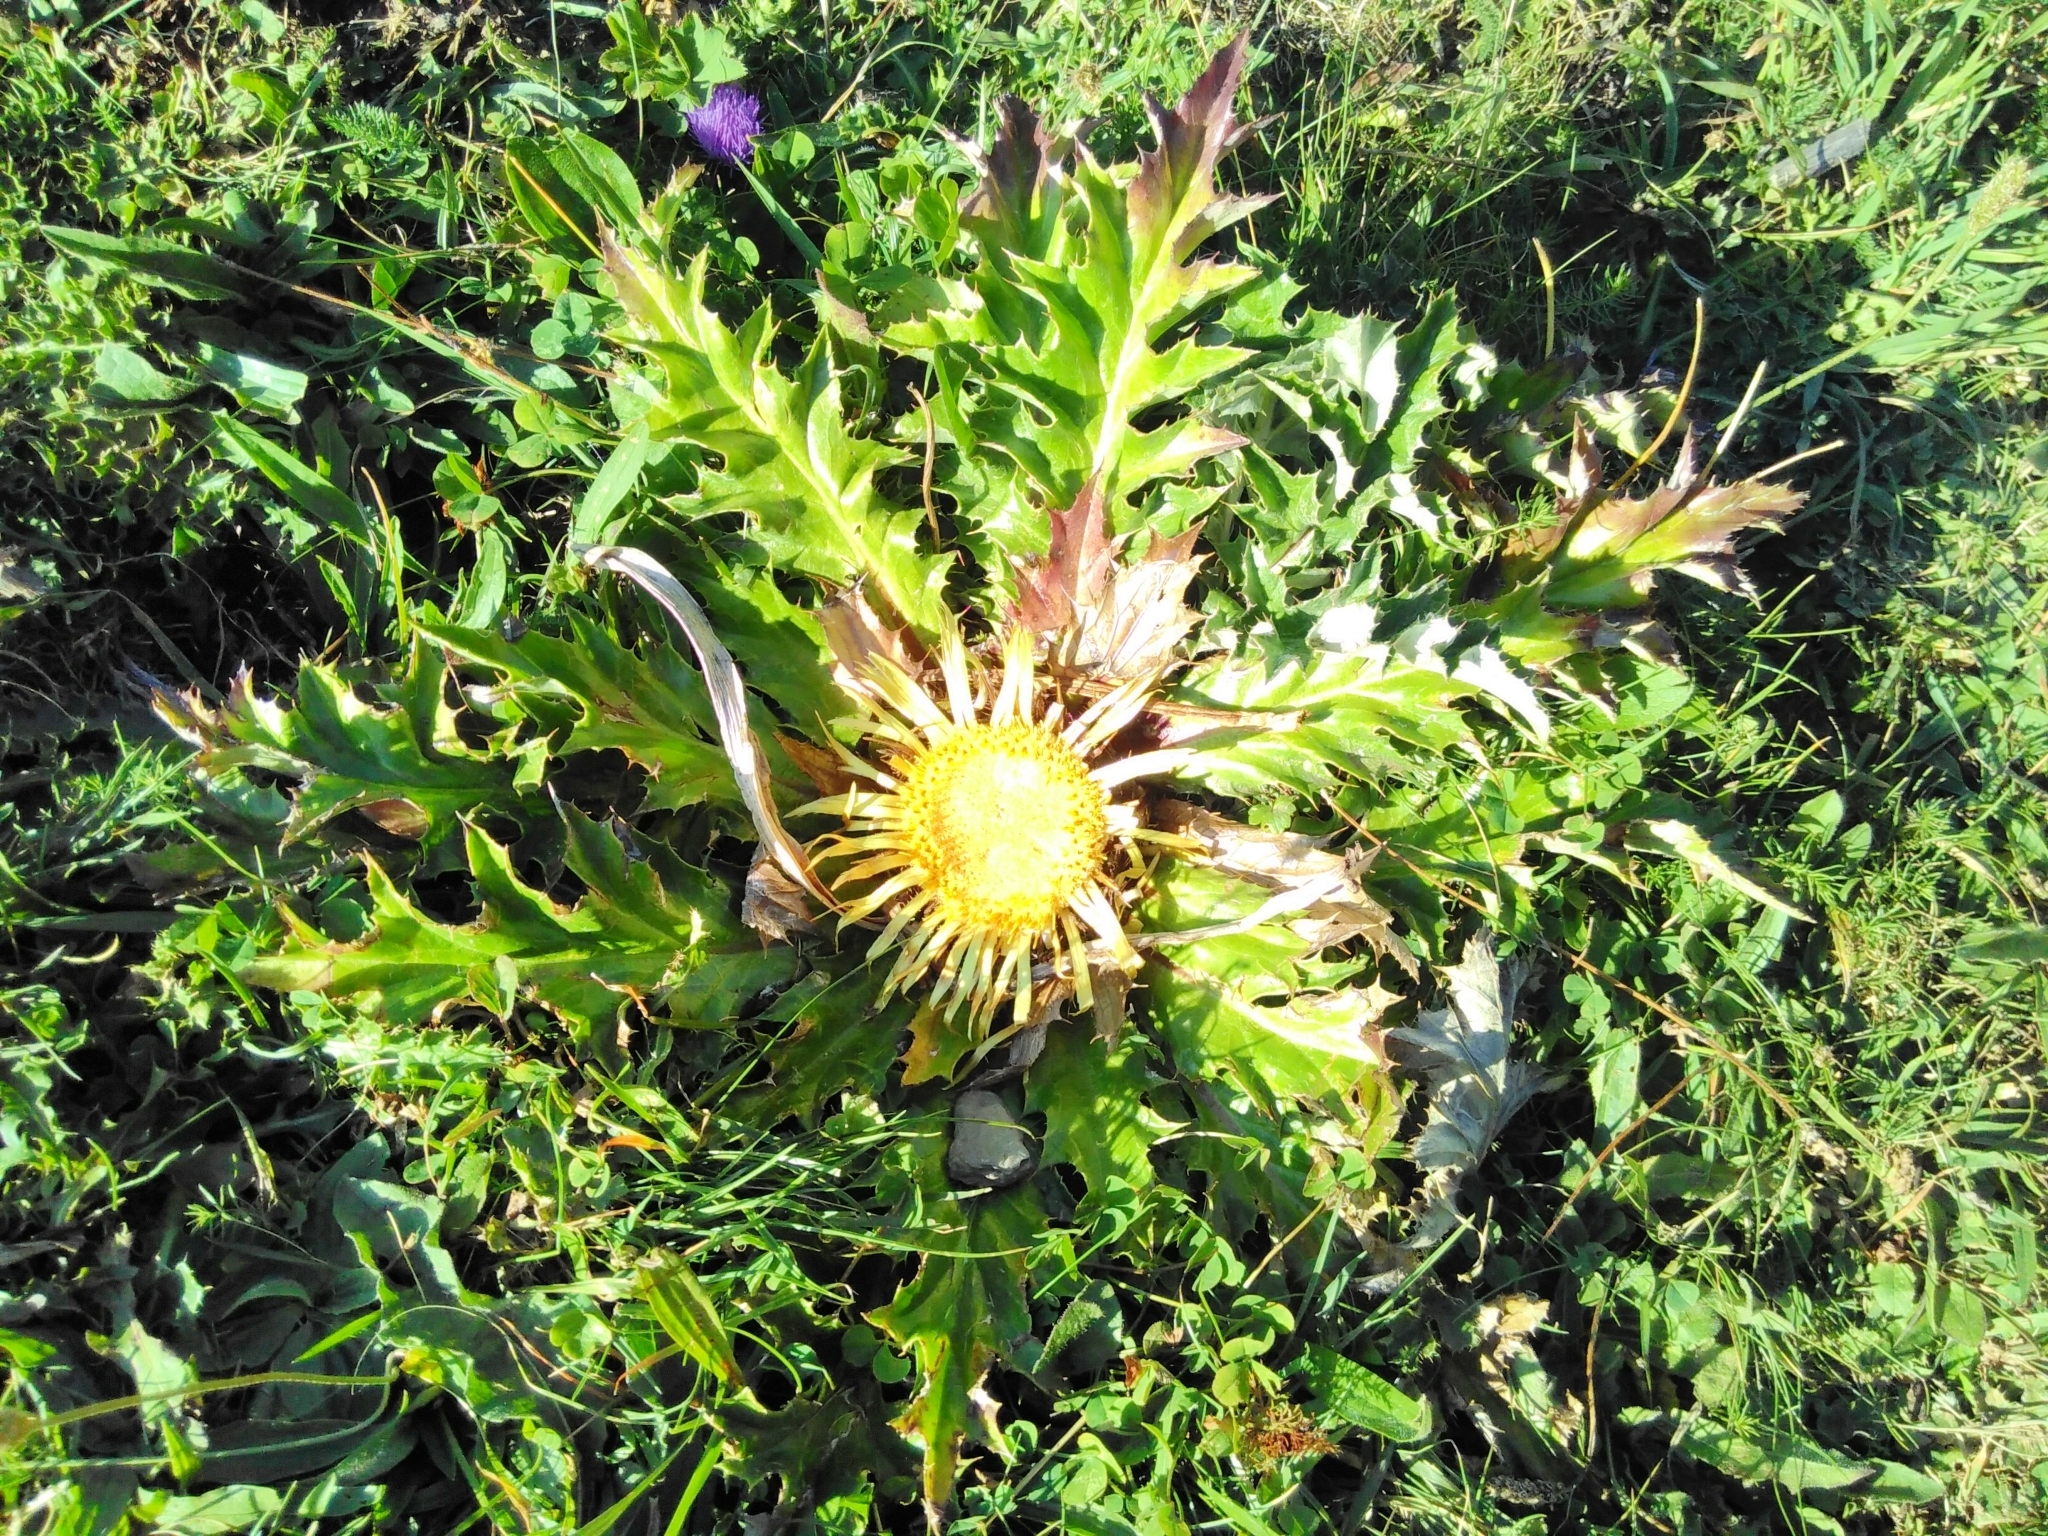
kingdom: Plantae
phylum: Tracheophyta
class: Magnoliopsida
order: Asterales
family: Asteraceae
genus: Carlina
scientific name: Carlina acaulis
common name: Stemless carline thistle
